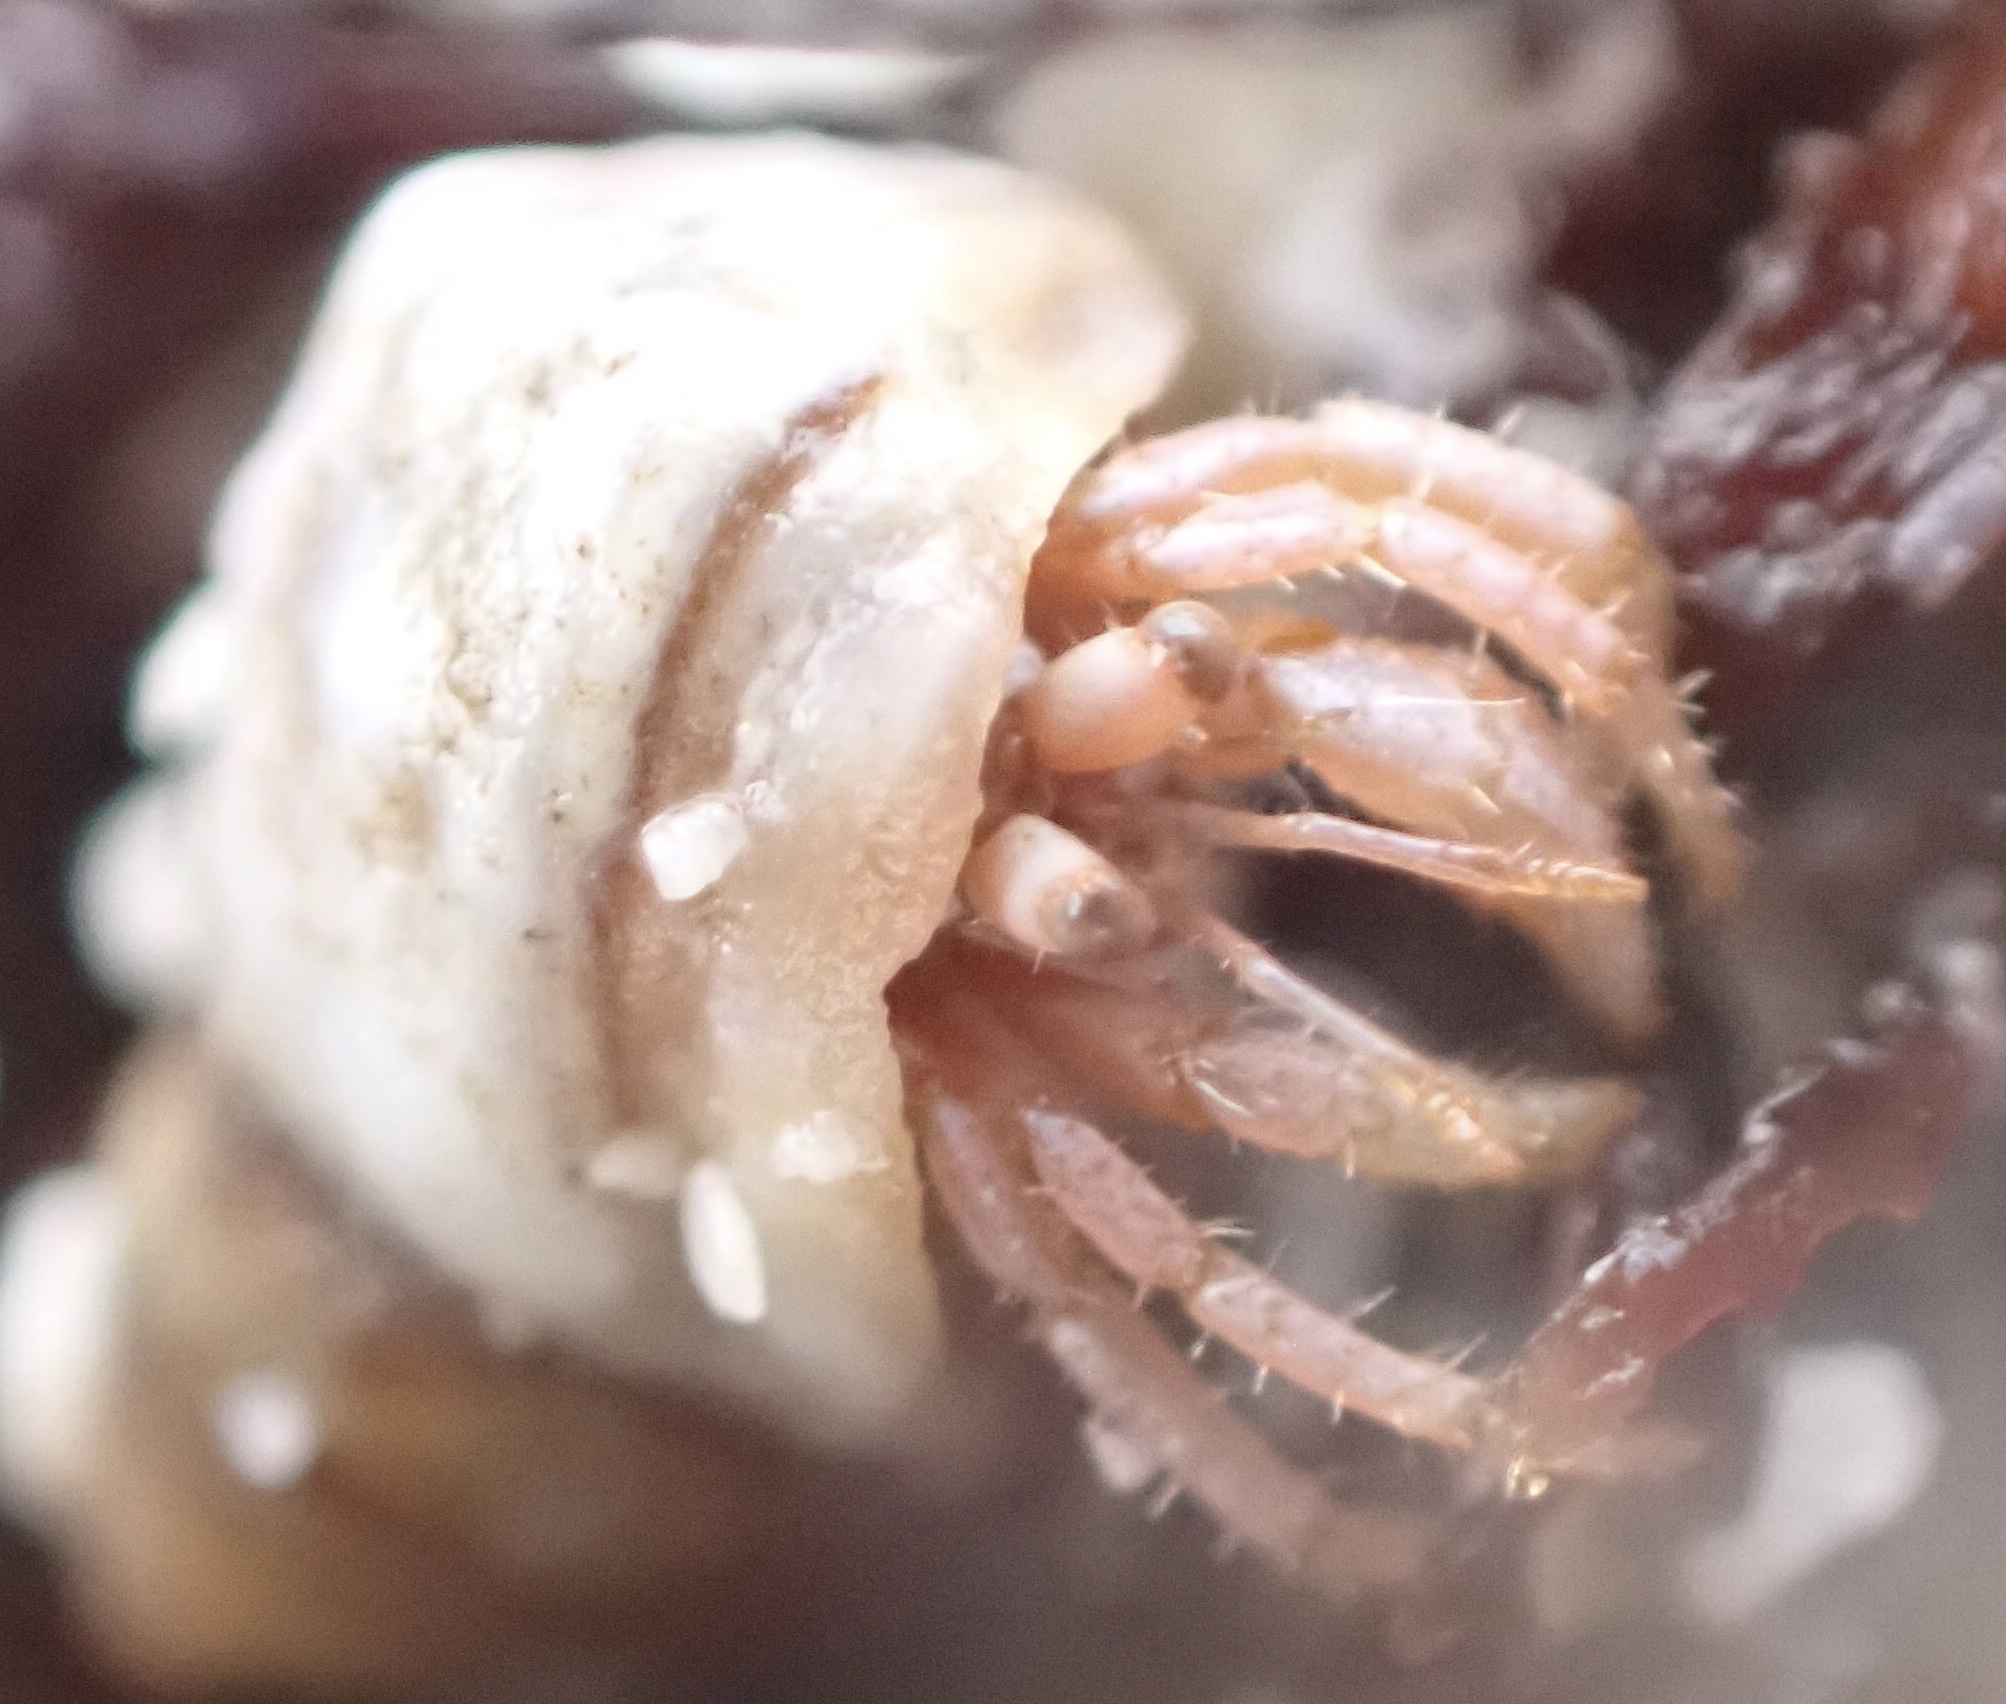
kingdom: Animalia
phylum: Arthropoda
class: Malacostraca
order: Decapoda
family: Coenobitidae
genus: Coenobita
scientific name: Coenobita scaevola
